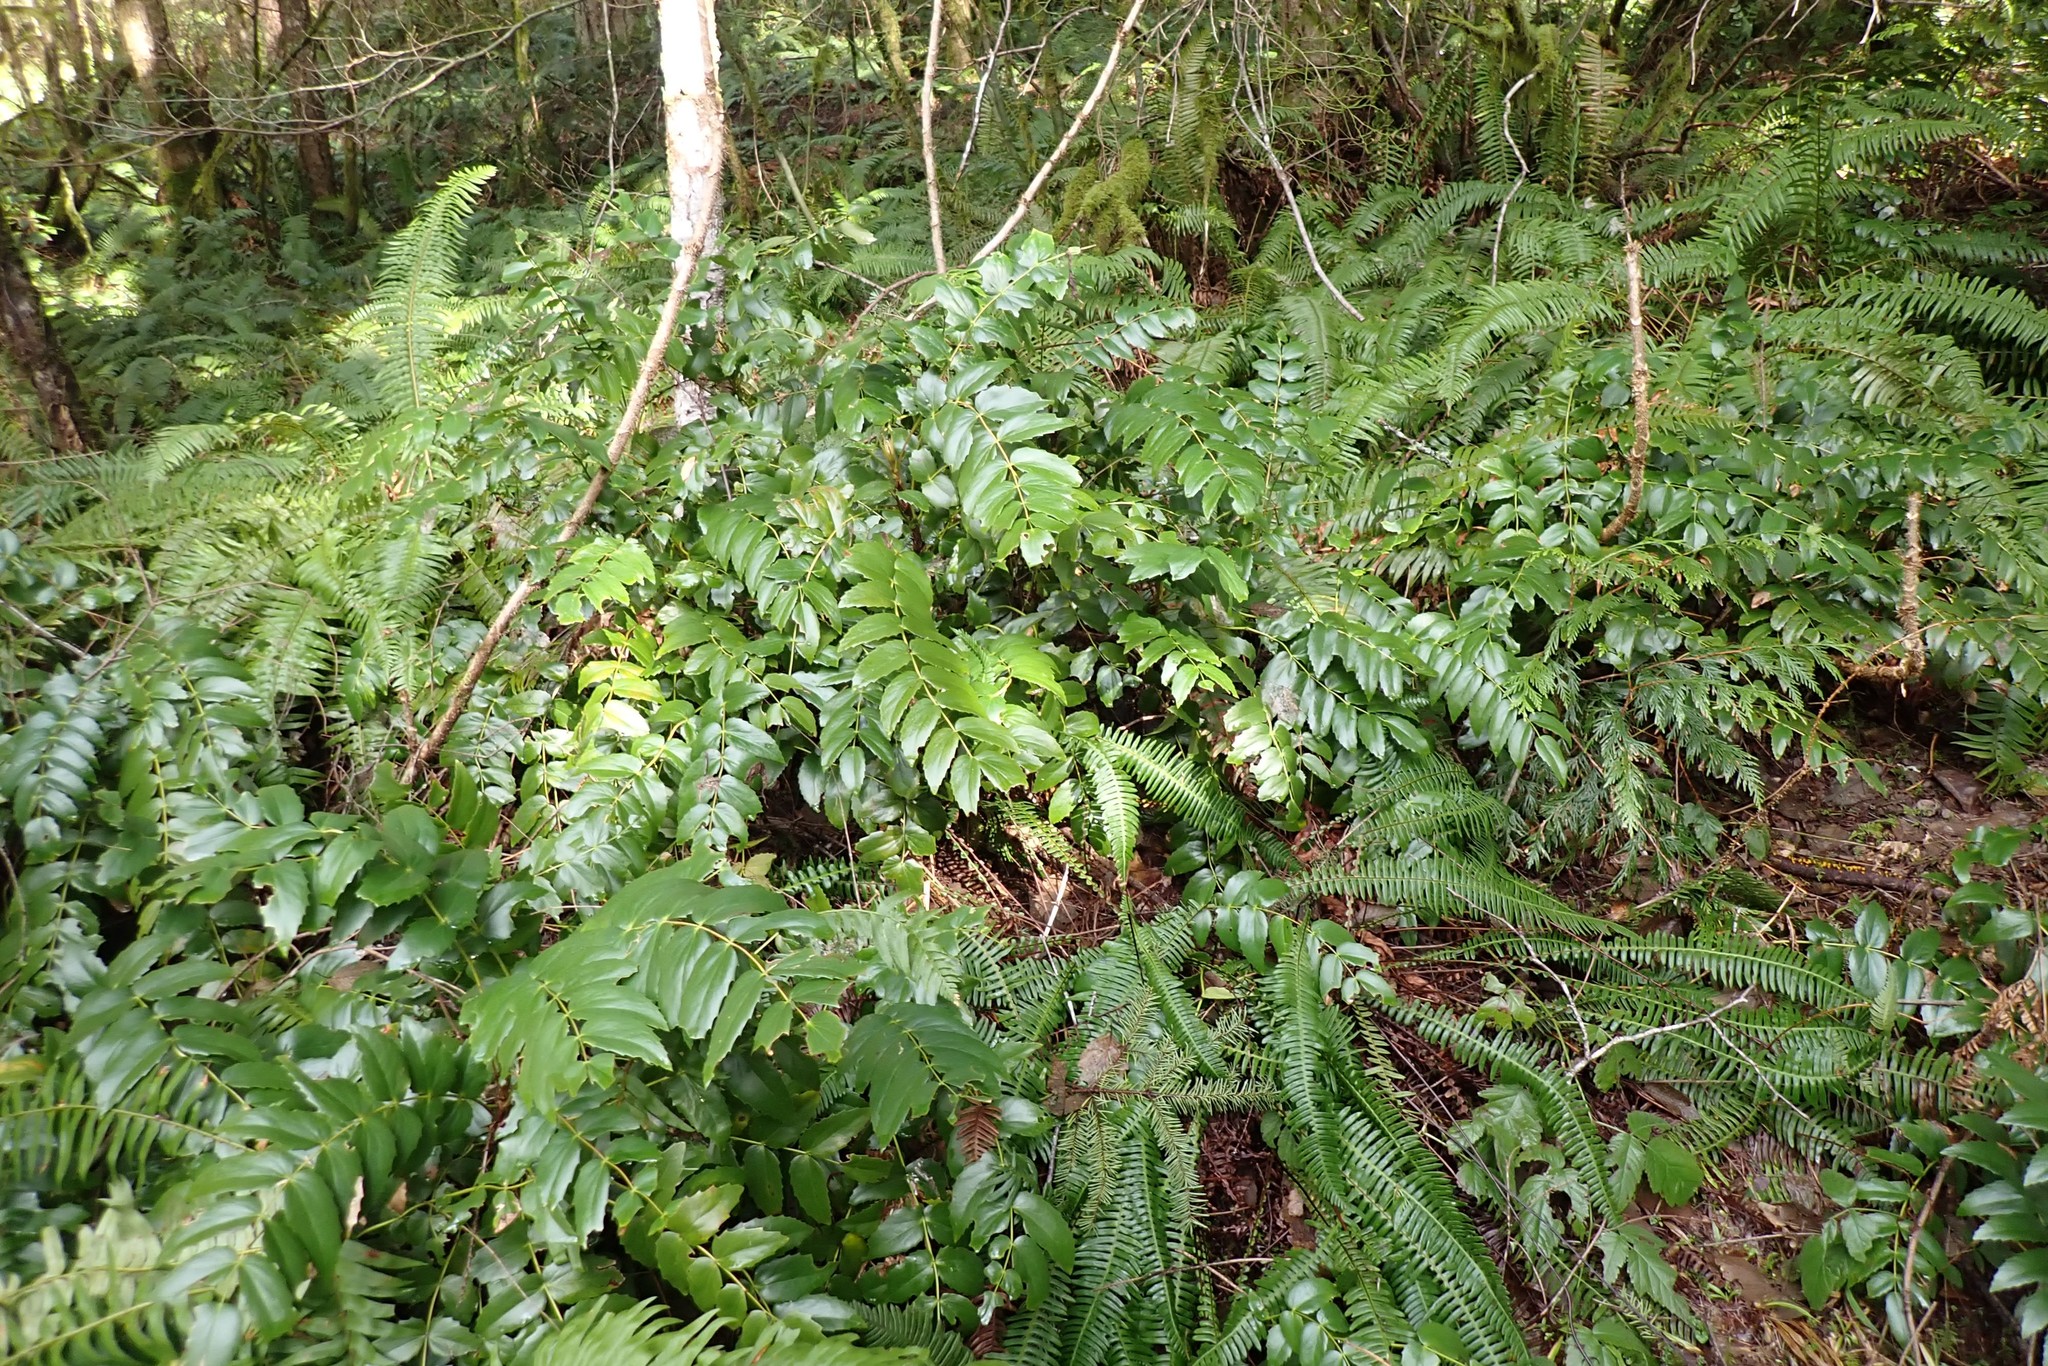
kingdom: Plantae
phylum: Tracheophyta
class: Magnoliopsida
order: Ranunculales
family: Berberidaceae
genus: Mahonia
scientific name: Mahonia nervosa
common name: Cascade oregon-grape
